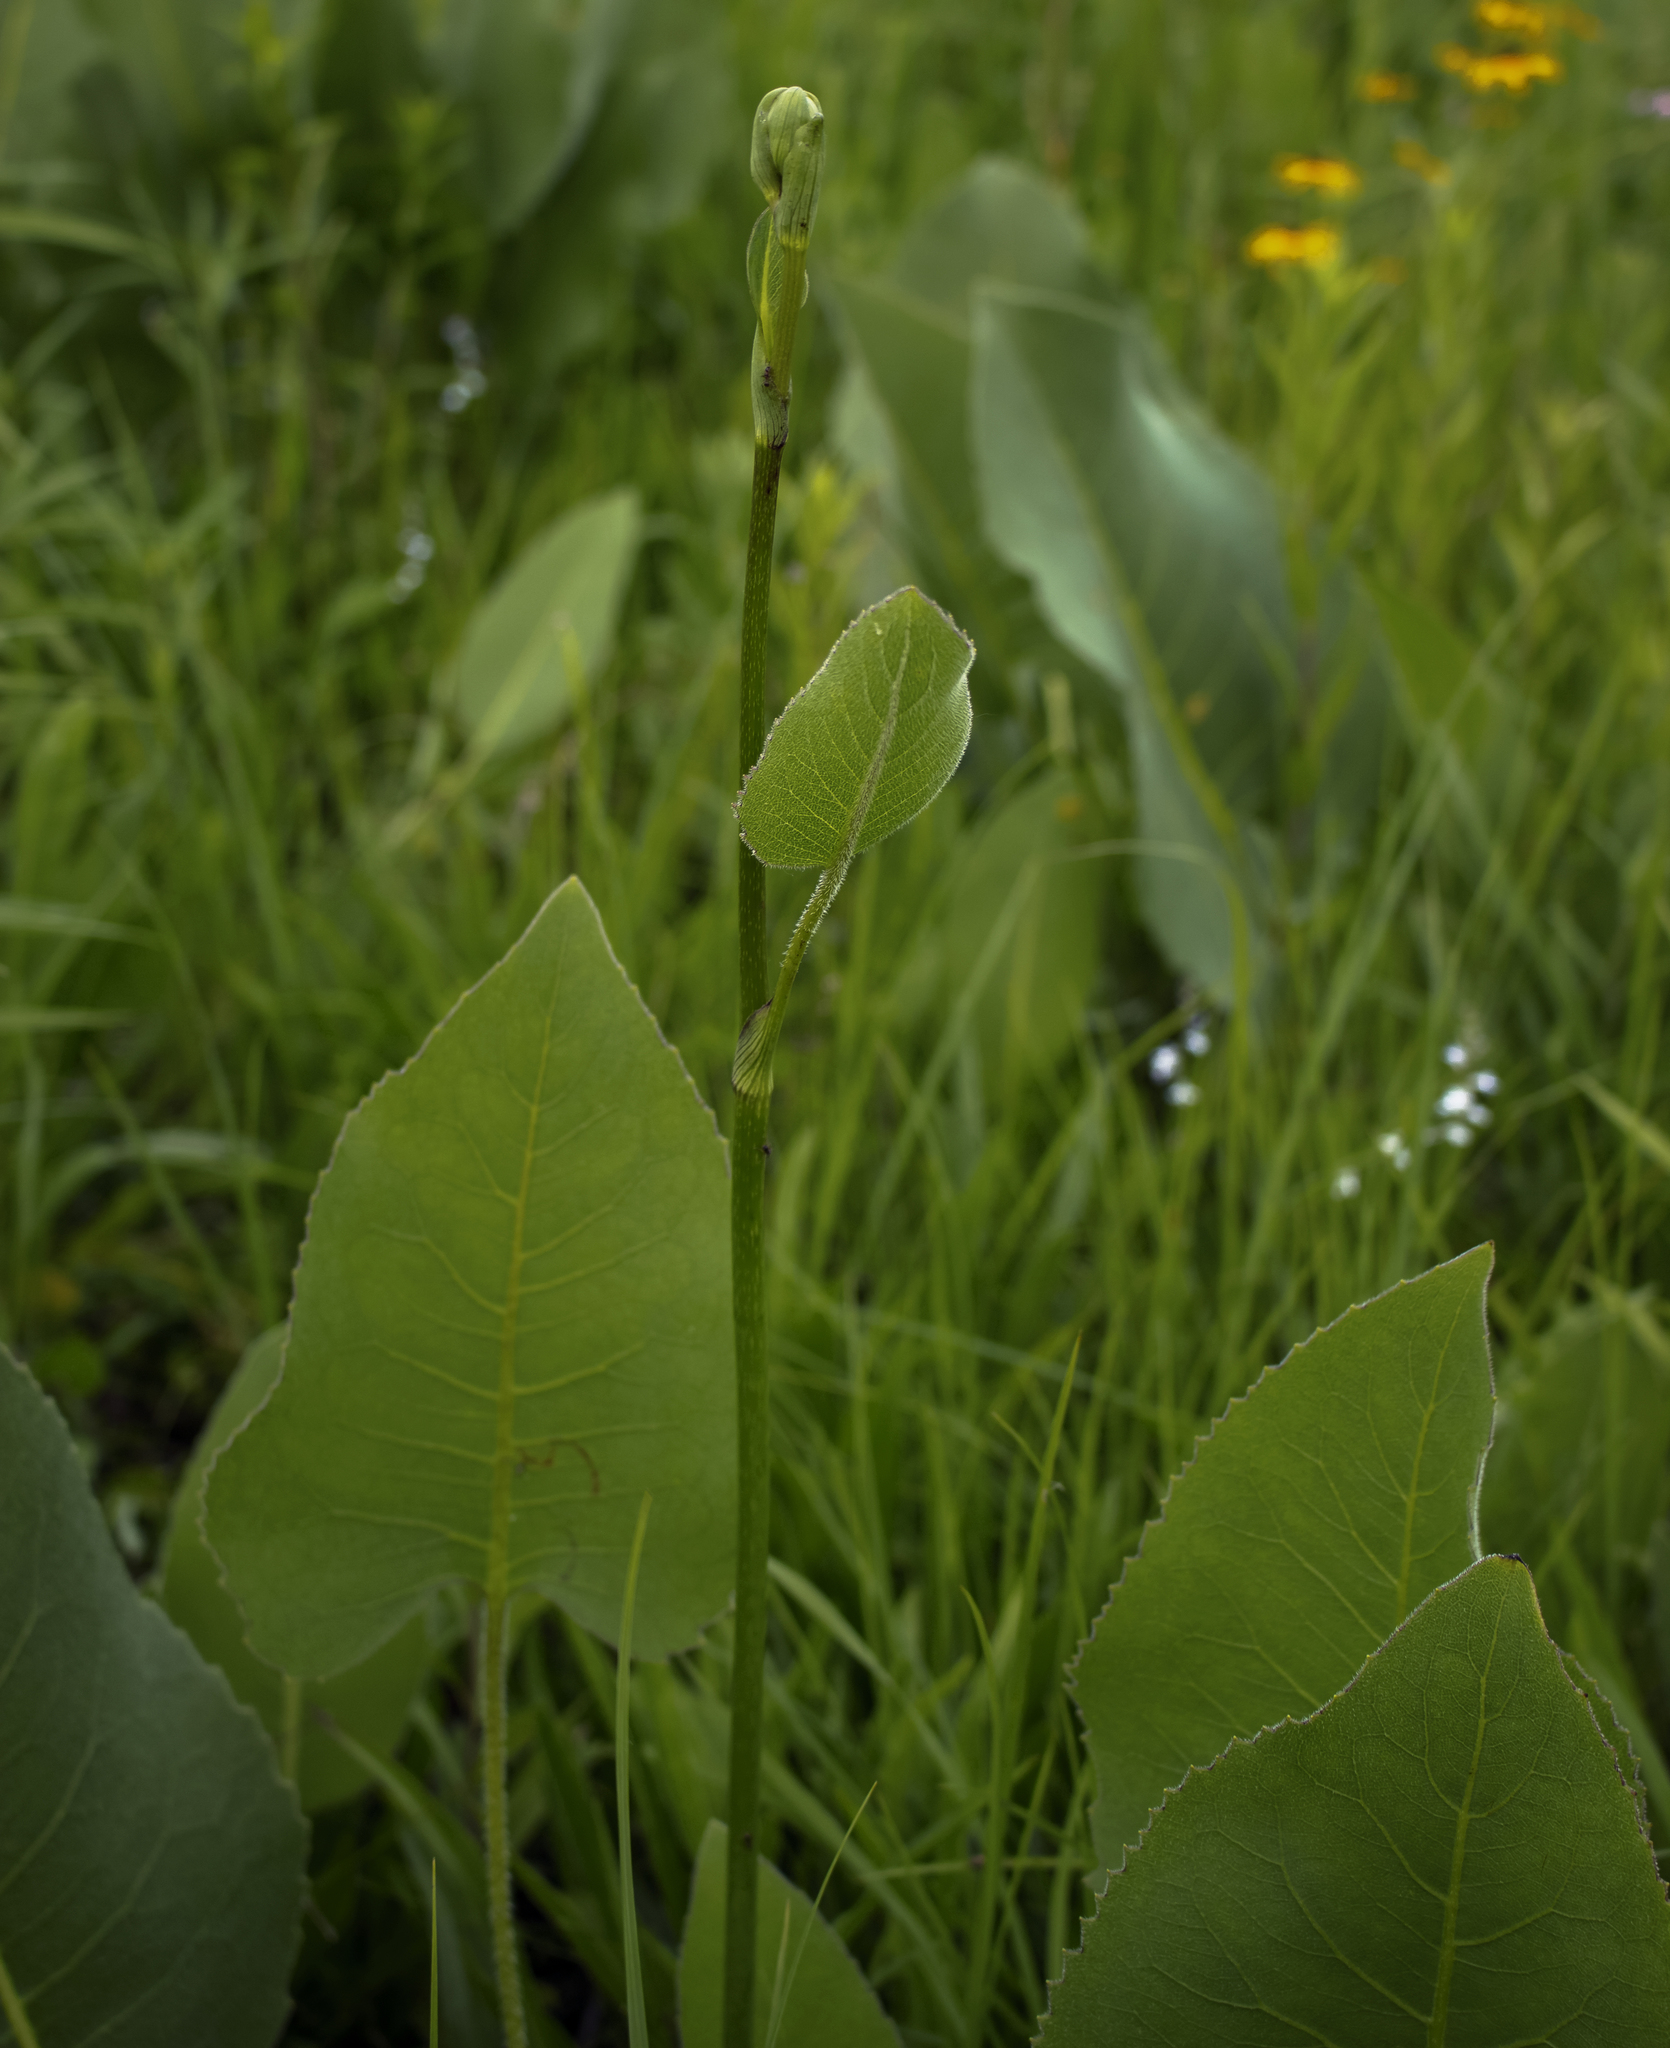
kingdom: Plantae
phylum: Tracheophyta
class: Magnoliopsida
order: Asterales
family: Asteraceae
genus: Silphium
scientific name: Silphium terebinthinaceum
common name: Basal-leaf rosinweed
